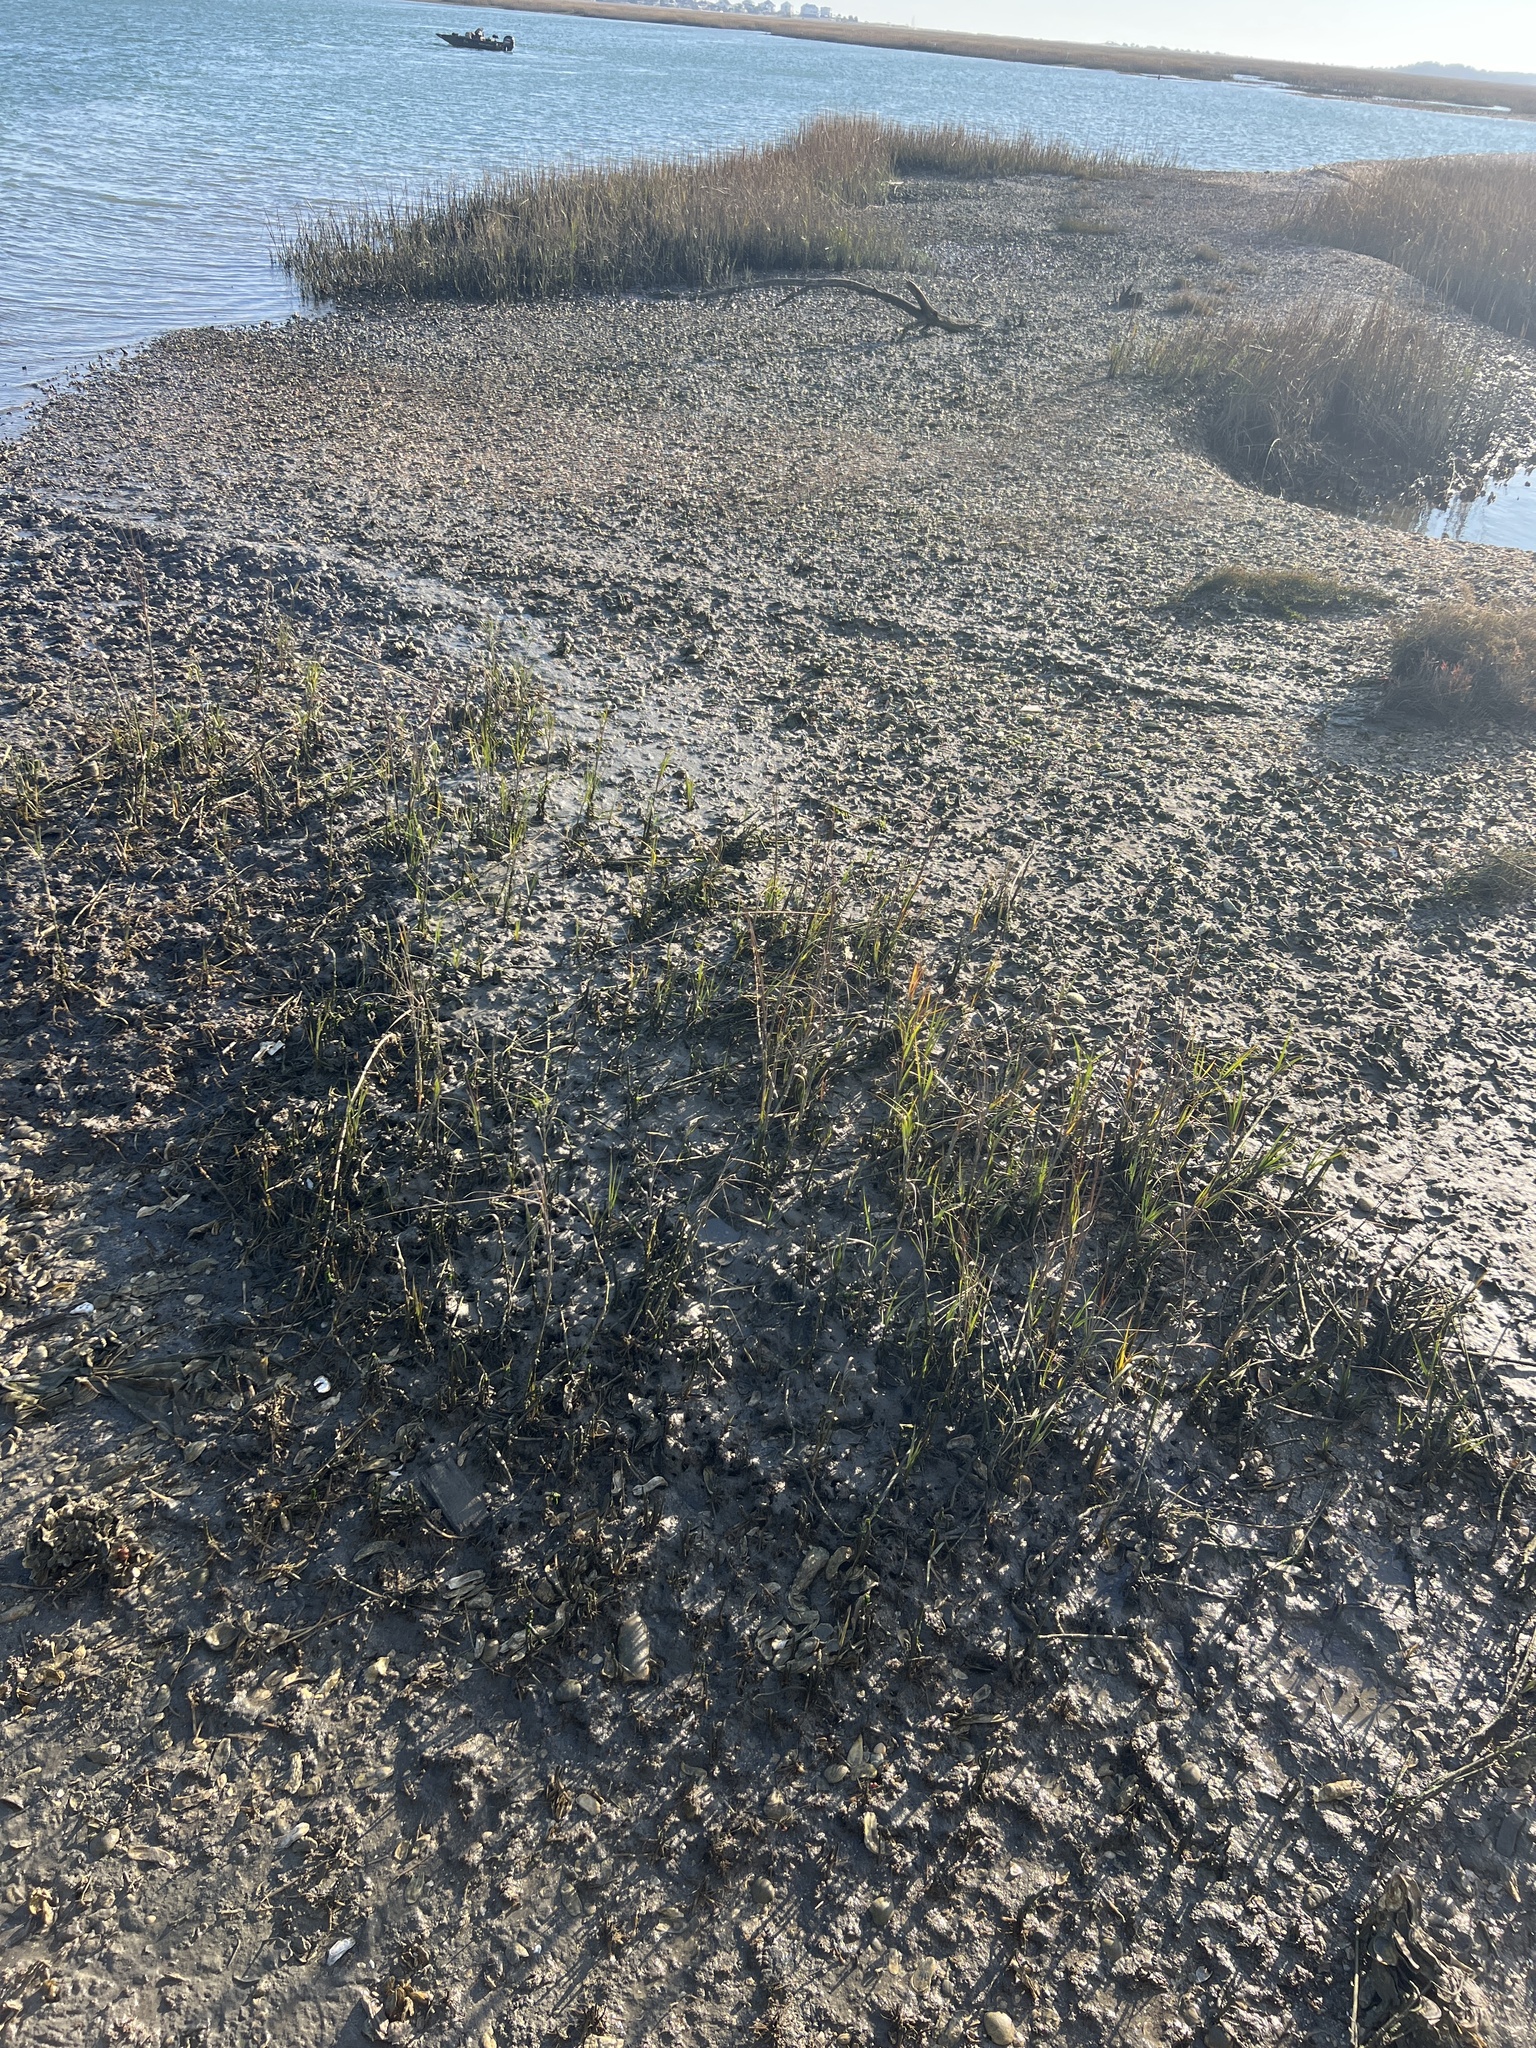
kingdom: Plantae
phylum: Tracheophyta
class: Liliopsida
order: Poales
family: Poaceae
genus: Sporobolus
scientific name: Sporobolus alterniflorus
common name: Atlantic cordgrass
